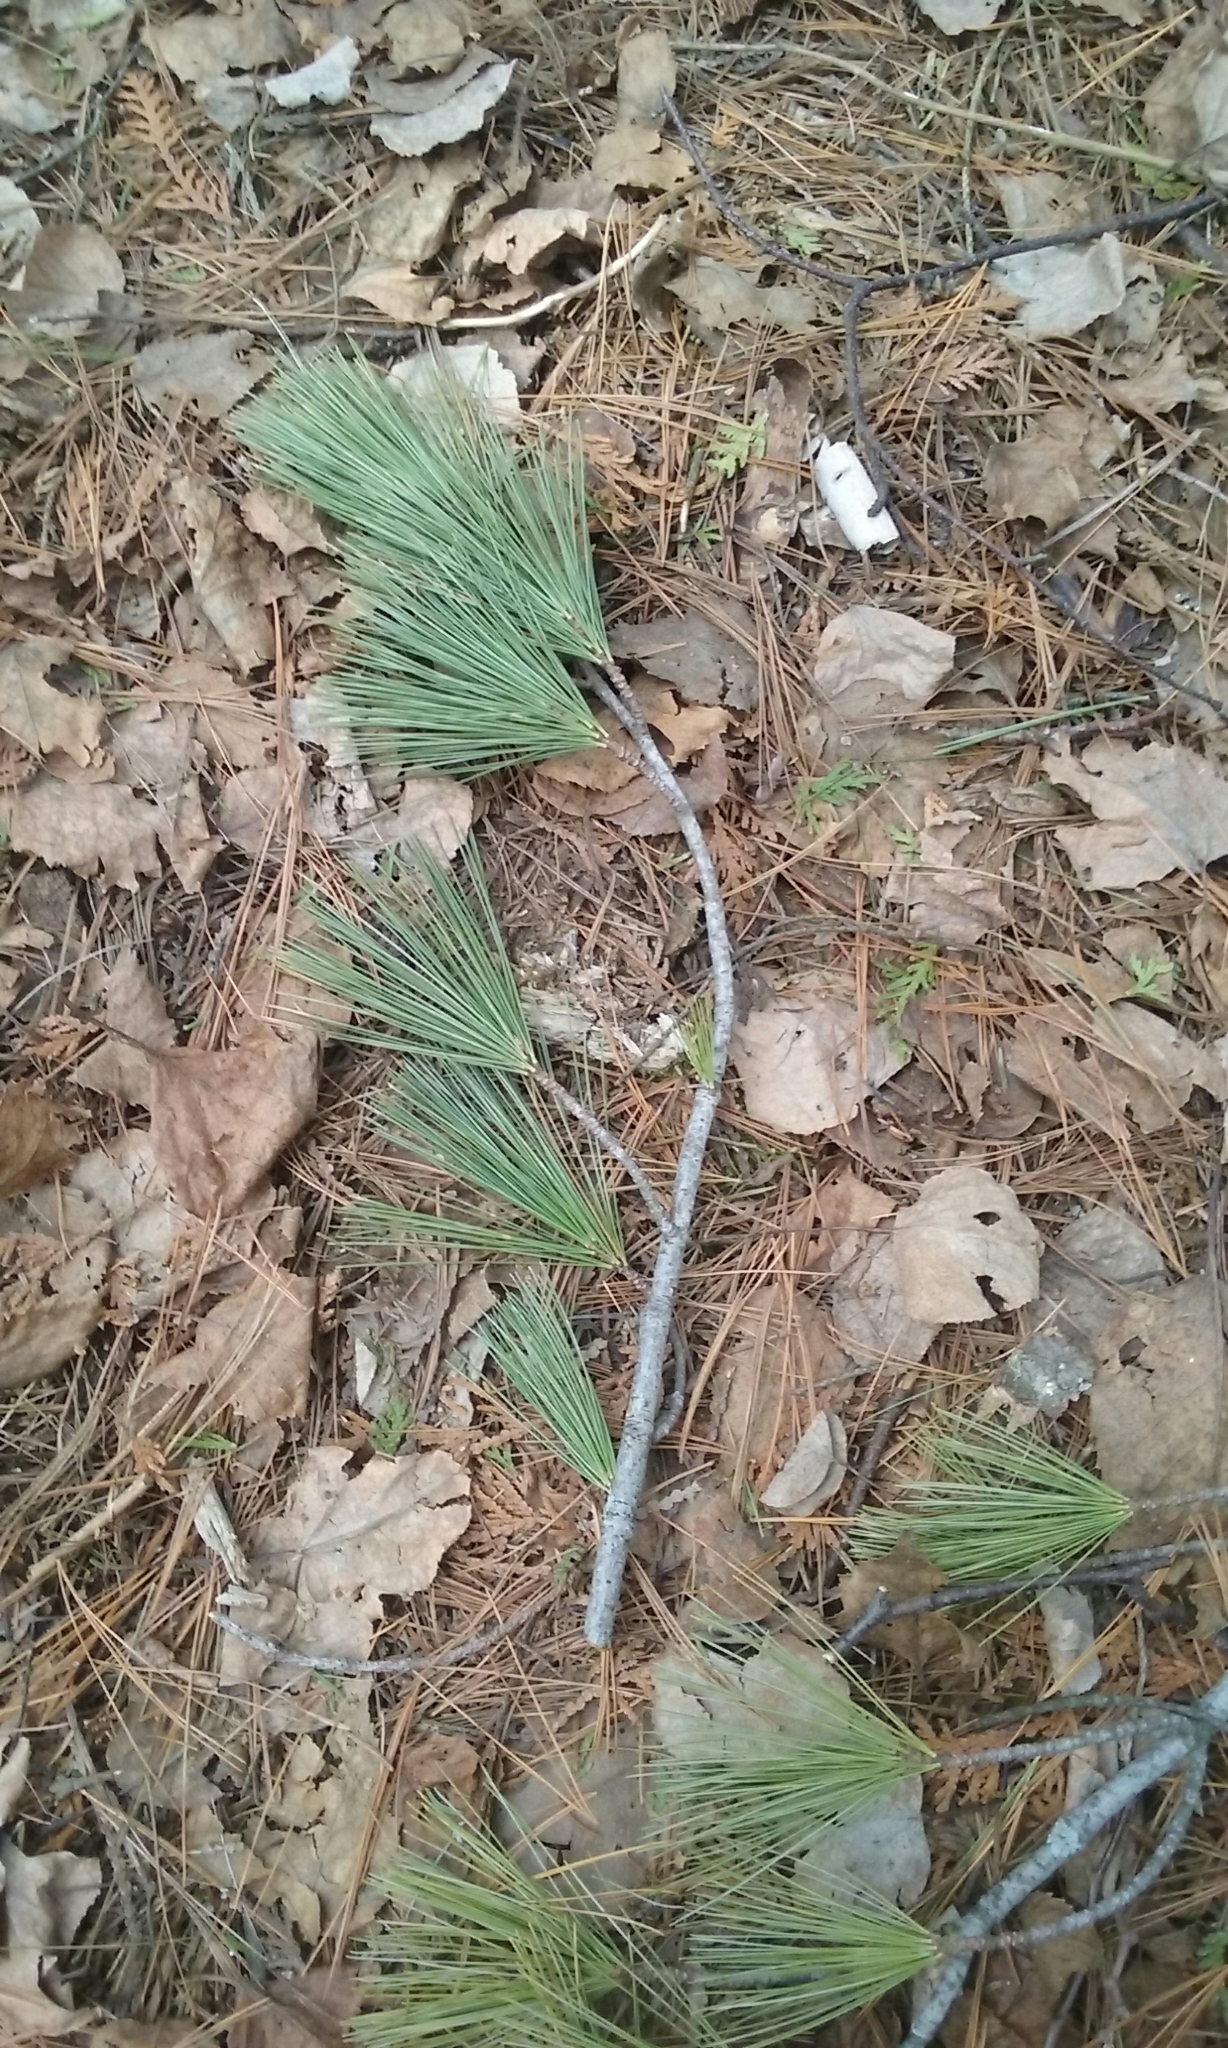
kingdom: Plantae
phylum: Tracheophyta
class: Pinopsida
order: Pinales
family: Pinaceae
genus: Pinus
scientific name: Pinus strobus
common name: Weymouth pine
